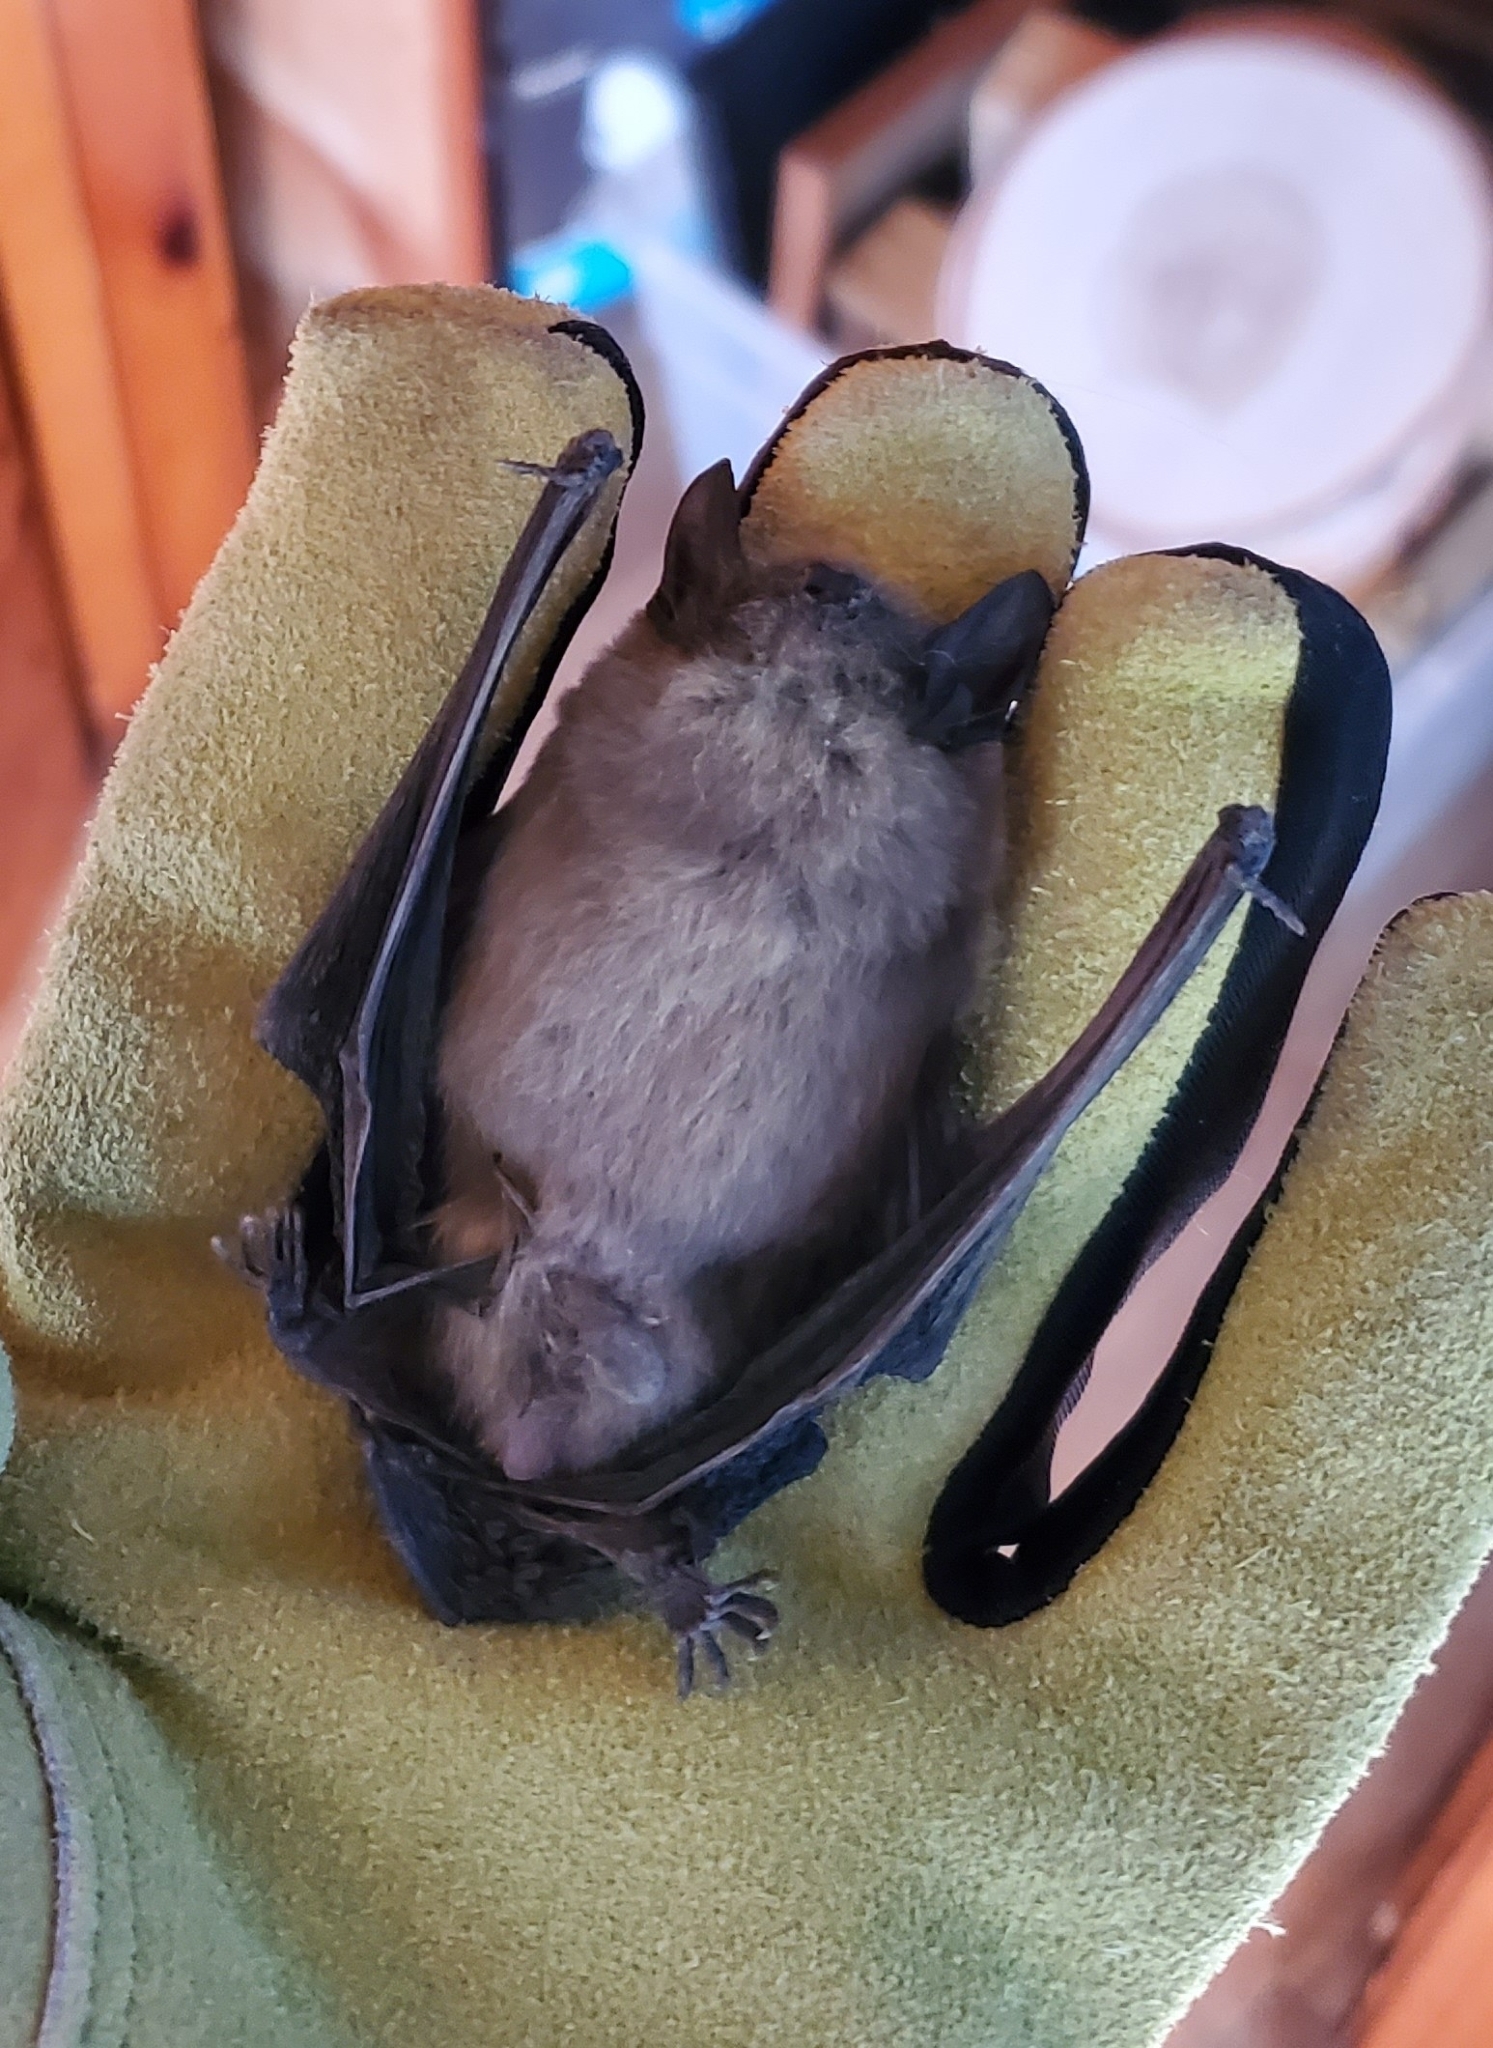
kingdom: Animalia
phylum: Chordata
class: Mammalia
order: Chiroptera
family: Vespertilionidae
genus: Eptesicus
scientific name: Eptesicus fuscus
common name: Big brown bat
